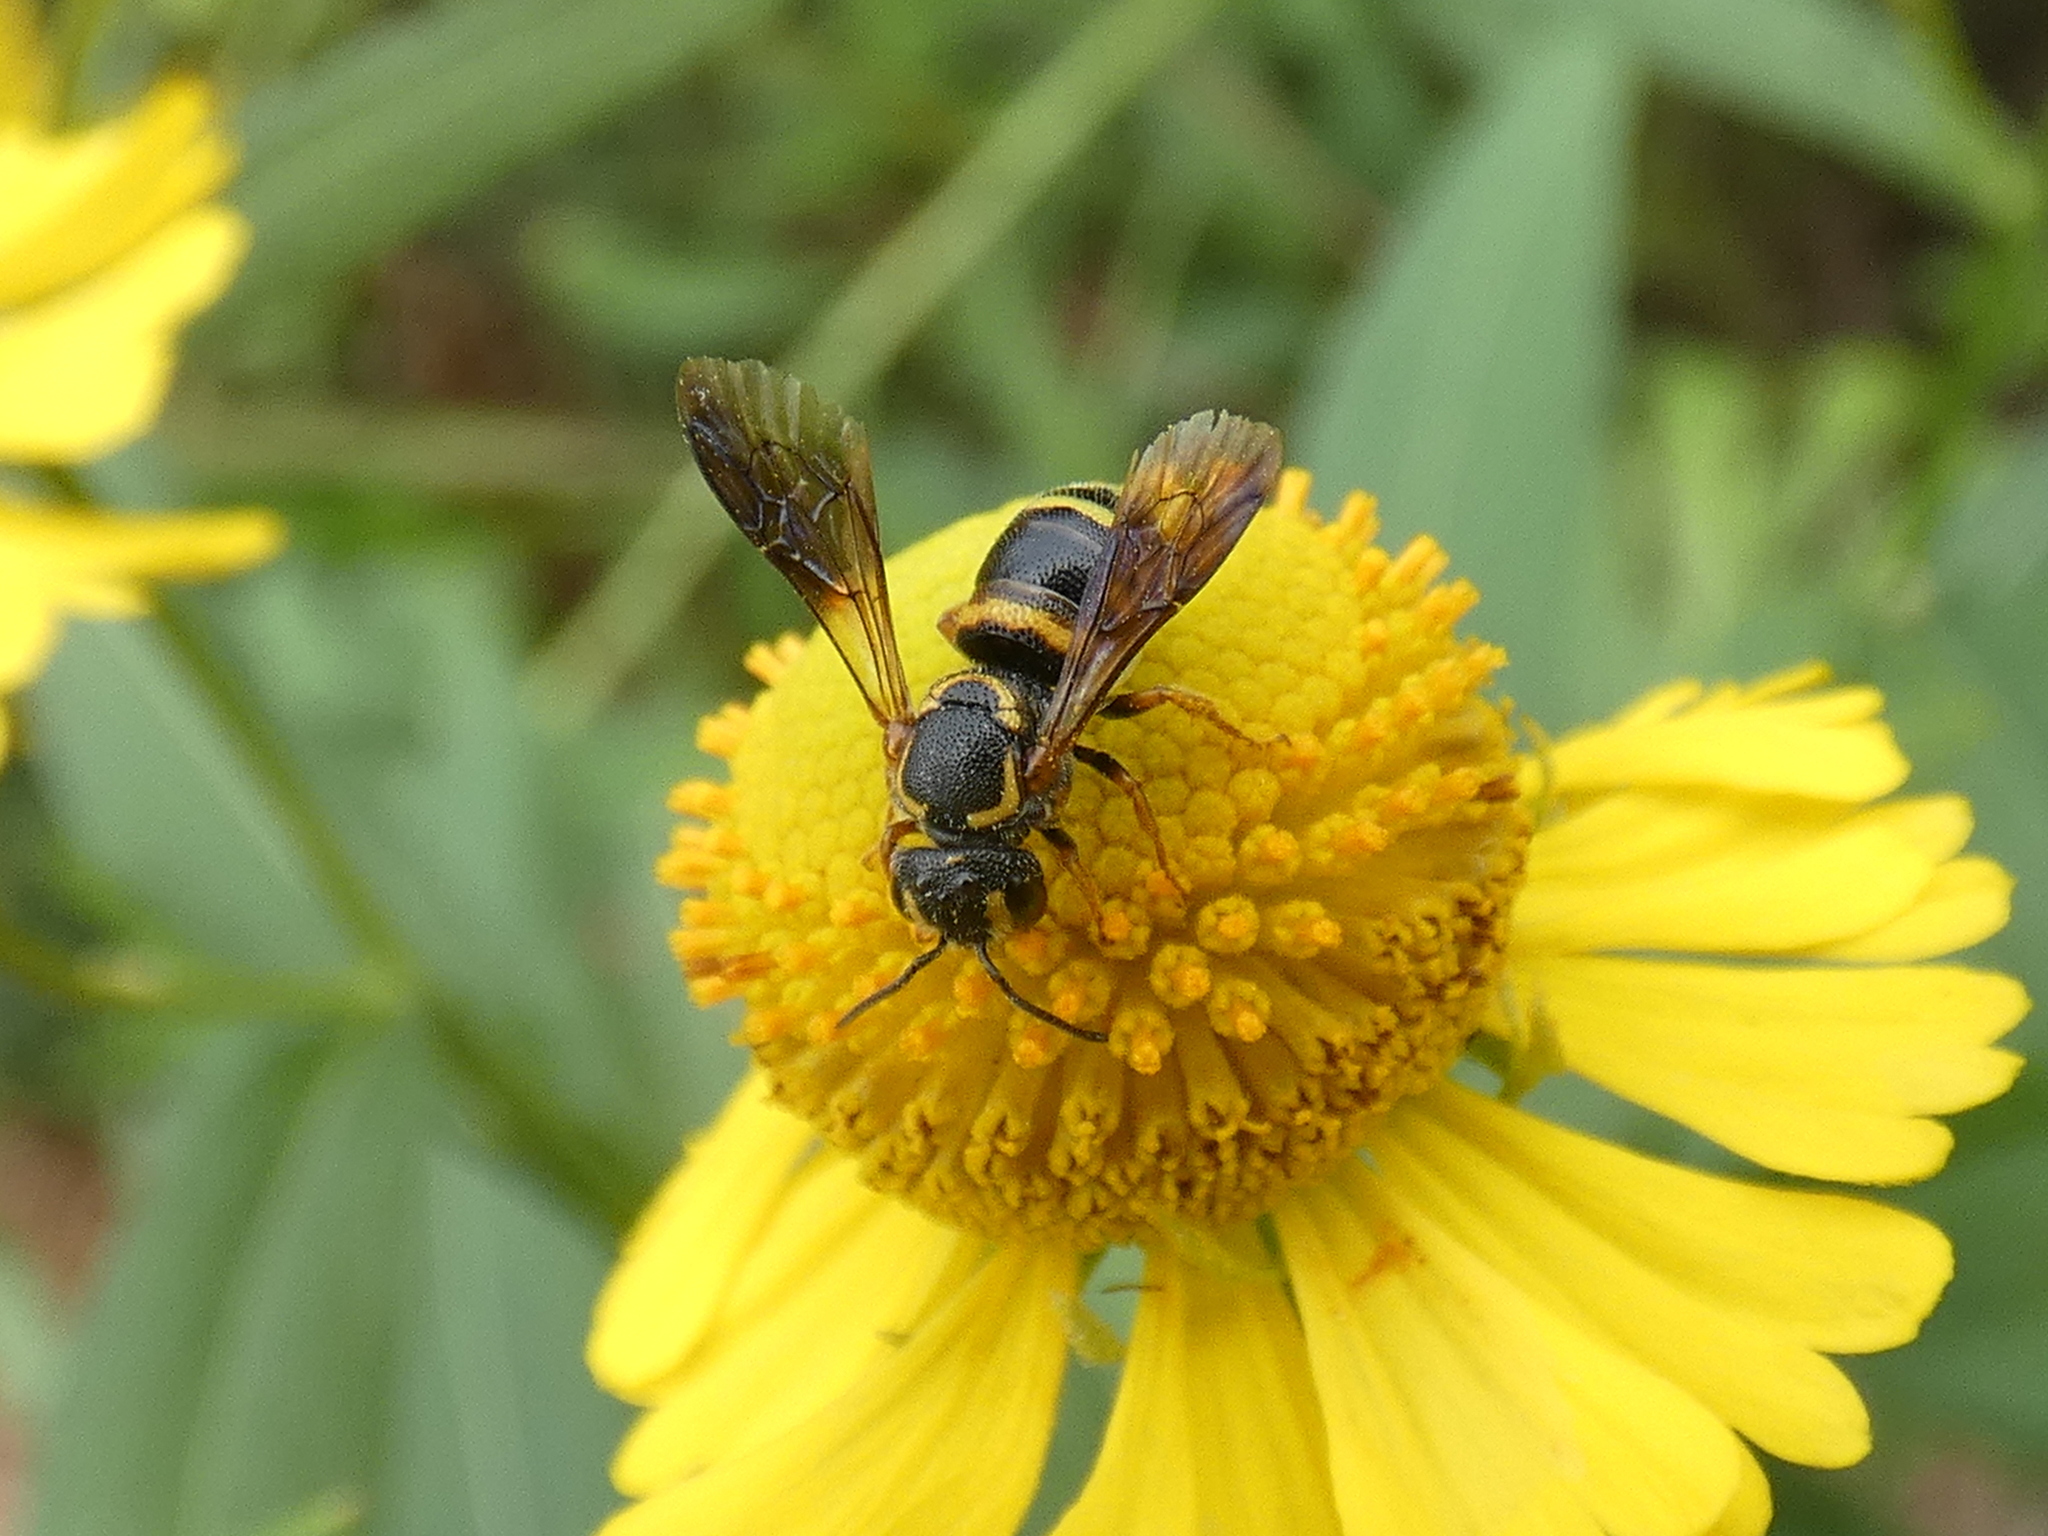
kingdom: Animalia
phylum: Arthropoda
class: Insecta
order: Hymenoptera
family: Megachilidae
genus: Stelis
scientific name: Stelis louisae
